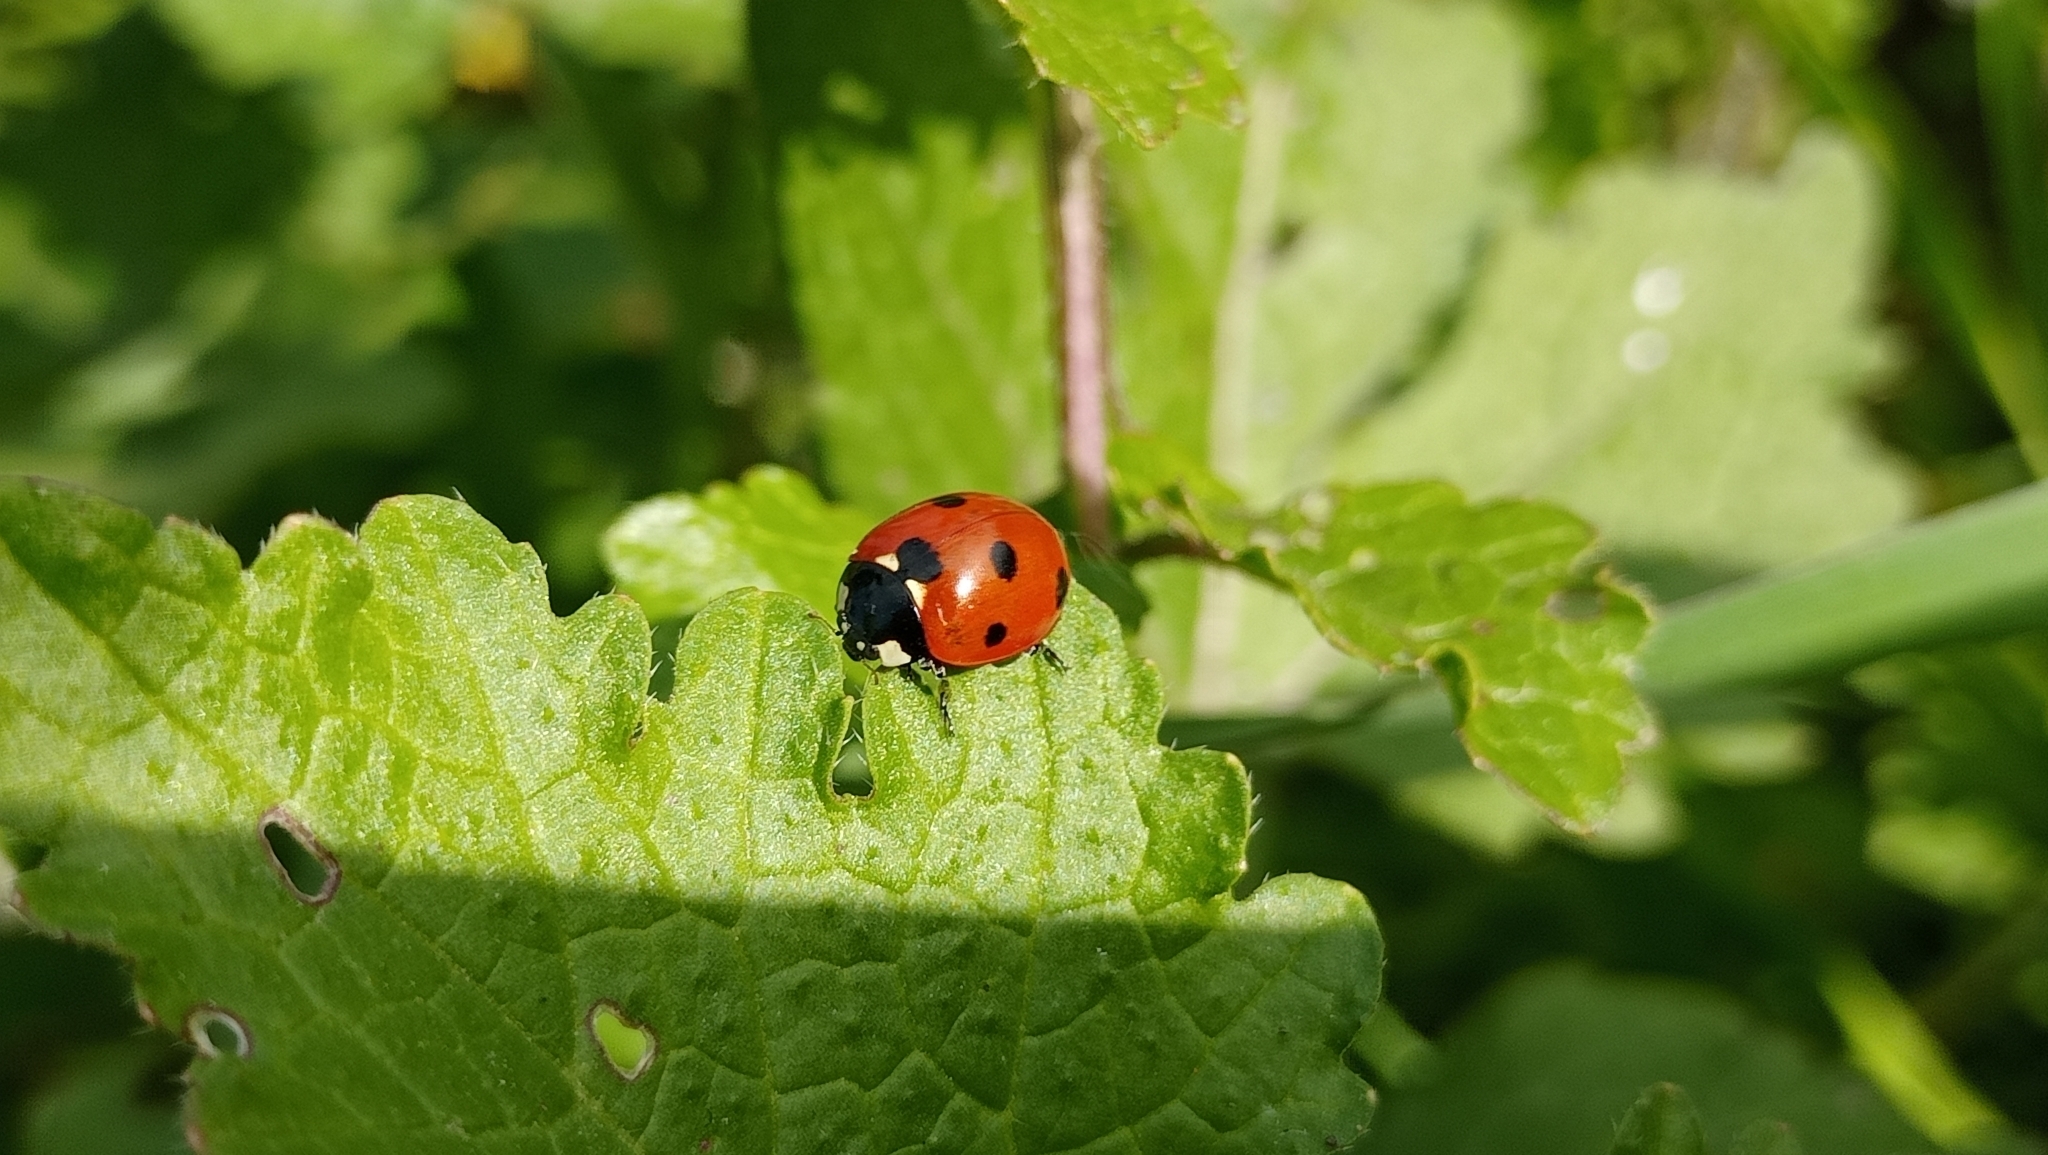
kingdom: Animalia
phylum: Arthropoda
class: Insecta
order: Coleoptera
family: Coccinellidae
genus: Coccinella
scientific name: Coccinella septempunctata
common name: Sevenspotted lady beetle
